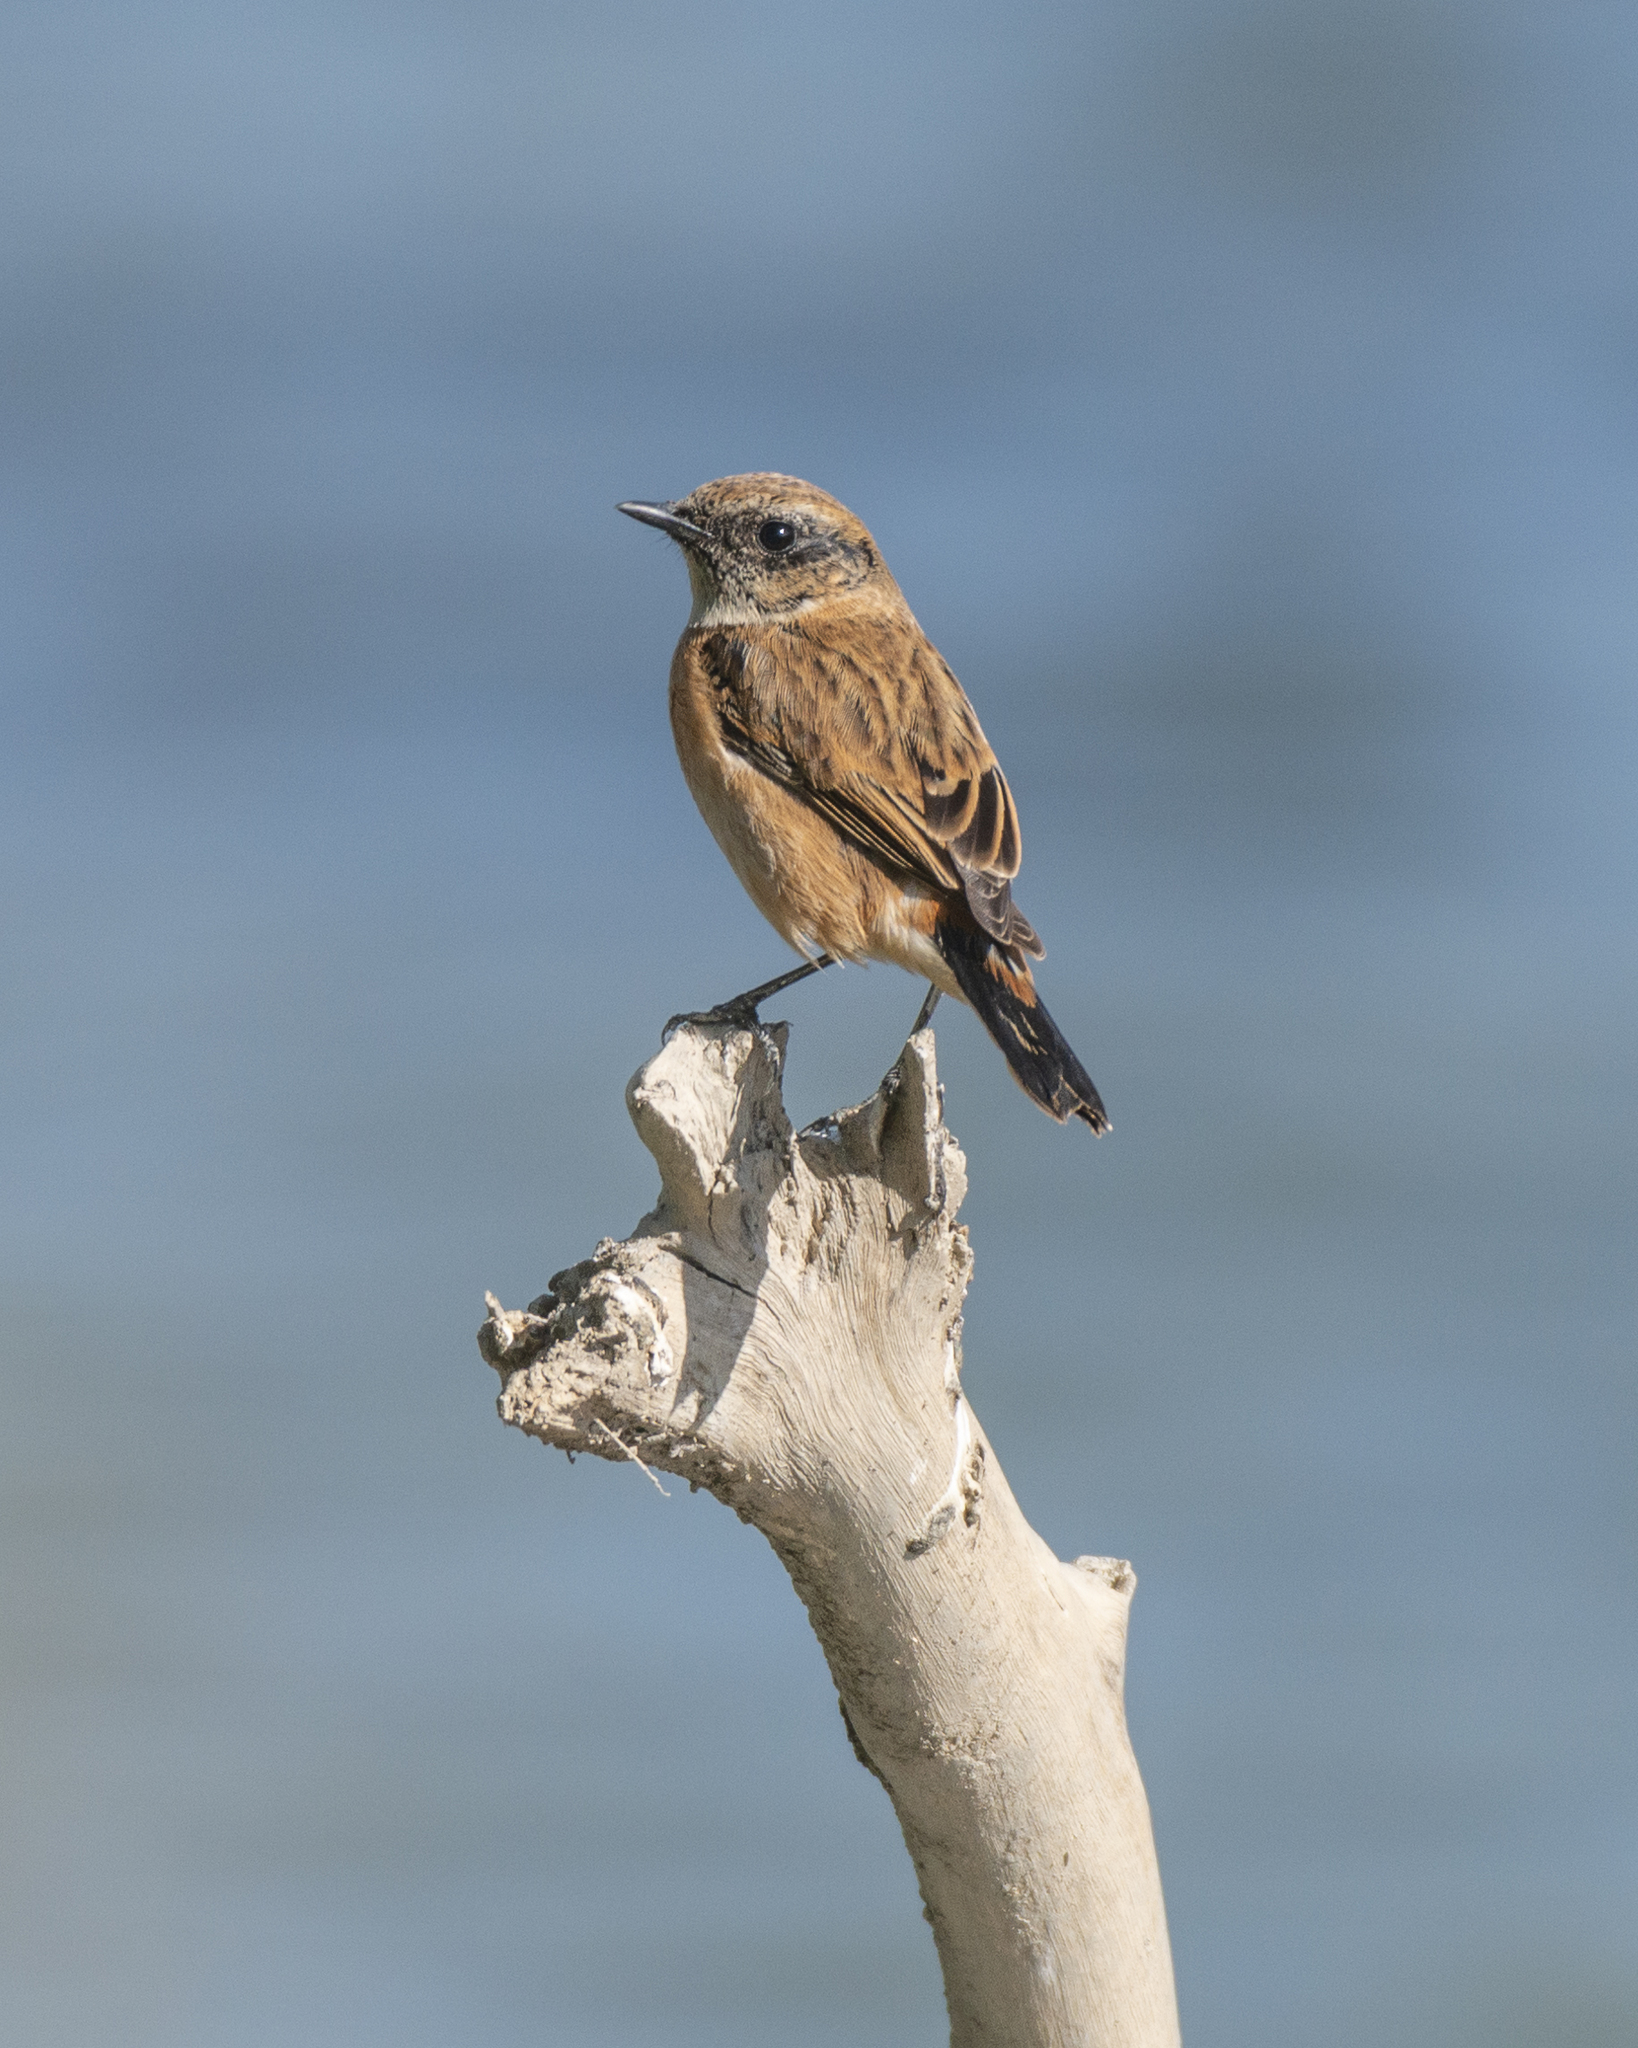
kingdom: Animalia
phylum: Chordata
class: Aves
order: Passeriformes
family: Muscicapidae
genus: Saxicola
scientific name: Saxicola stejnegeri
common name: Stejneger's stonechat
